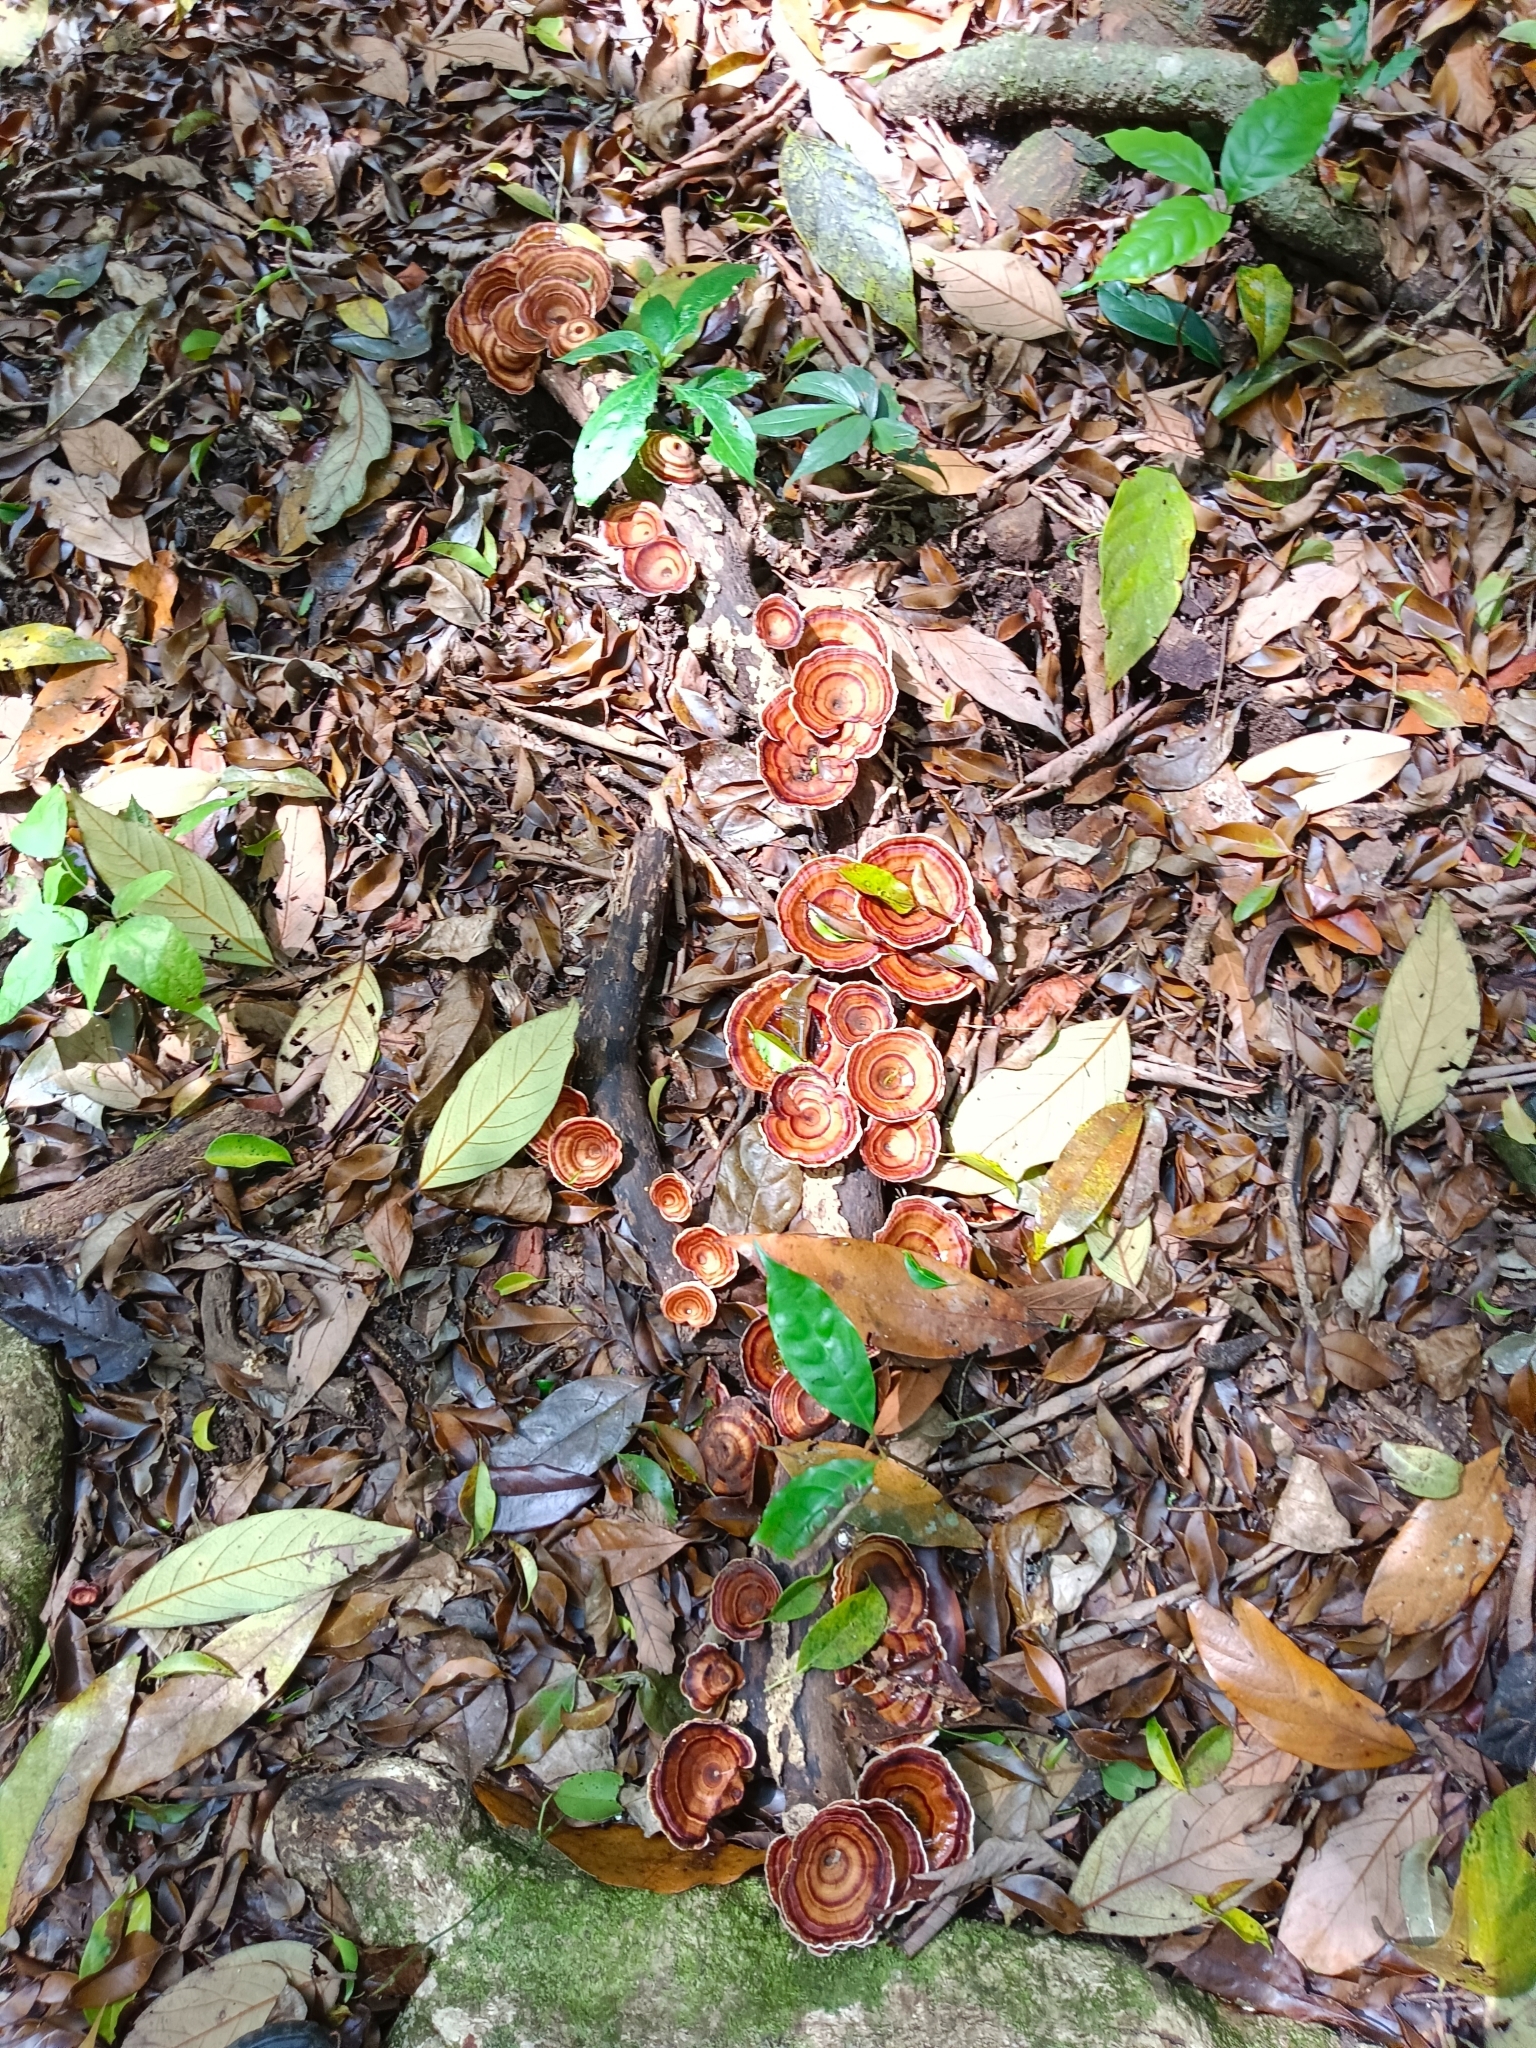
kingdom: Fungi
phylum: Basidiomycota
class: Agaricomycetes
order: Polyporales
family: Polyporaceae
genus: Microporus
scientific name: Microporus xanthopus
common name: Yellow-stemmed micropore
